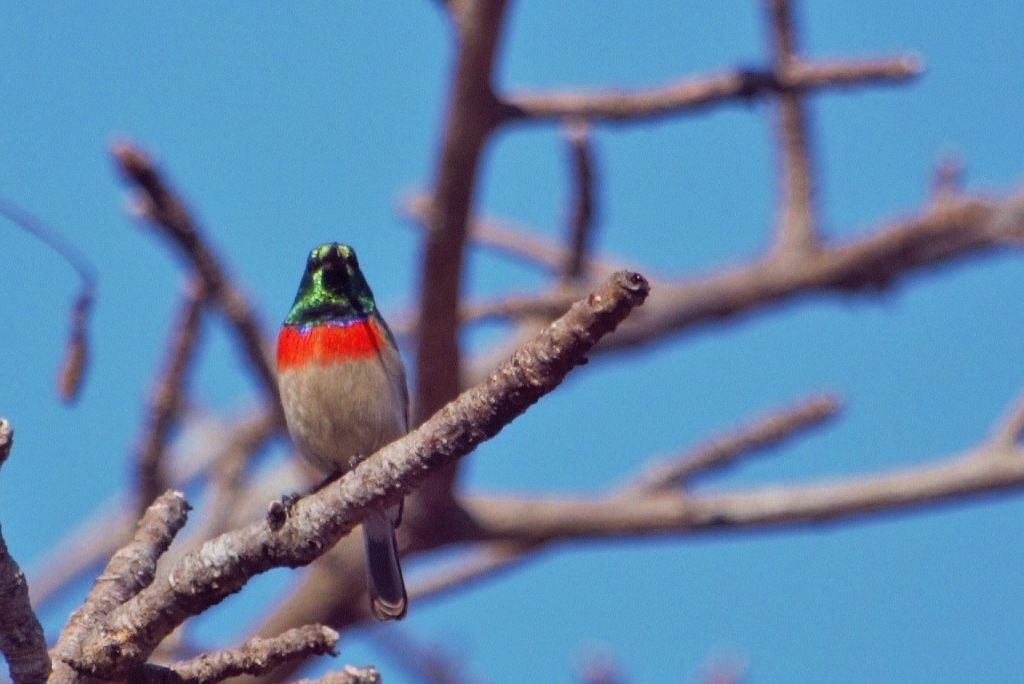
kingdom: Animalia
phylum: Chordata
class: Aves
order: Passeriformes
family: Nectariniidae
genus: Cinnyris
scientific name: Cinnyris manoensis
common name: Eastern miombo sunbird
